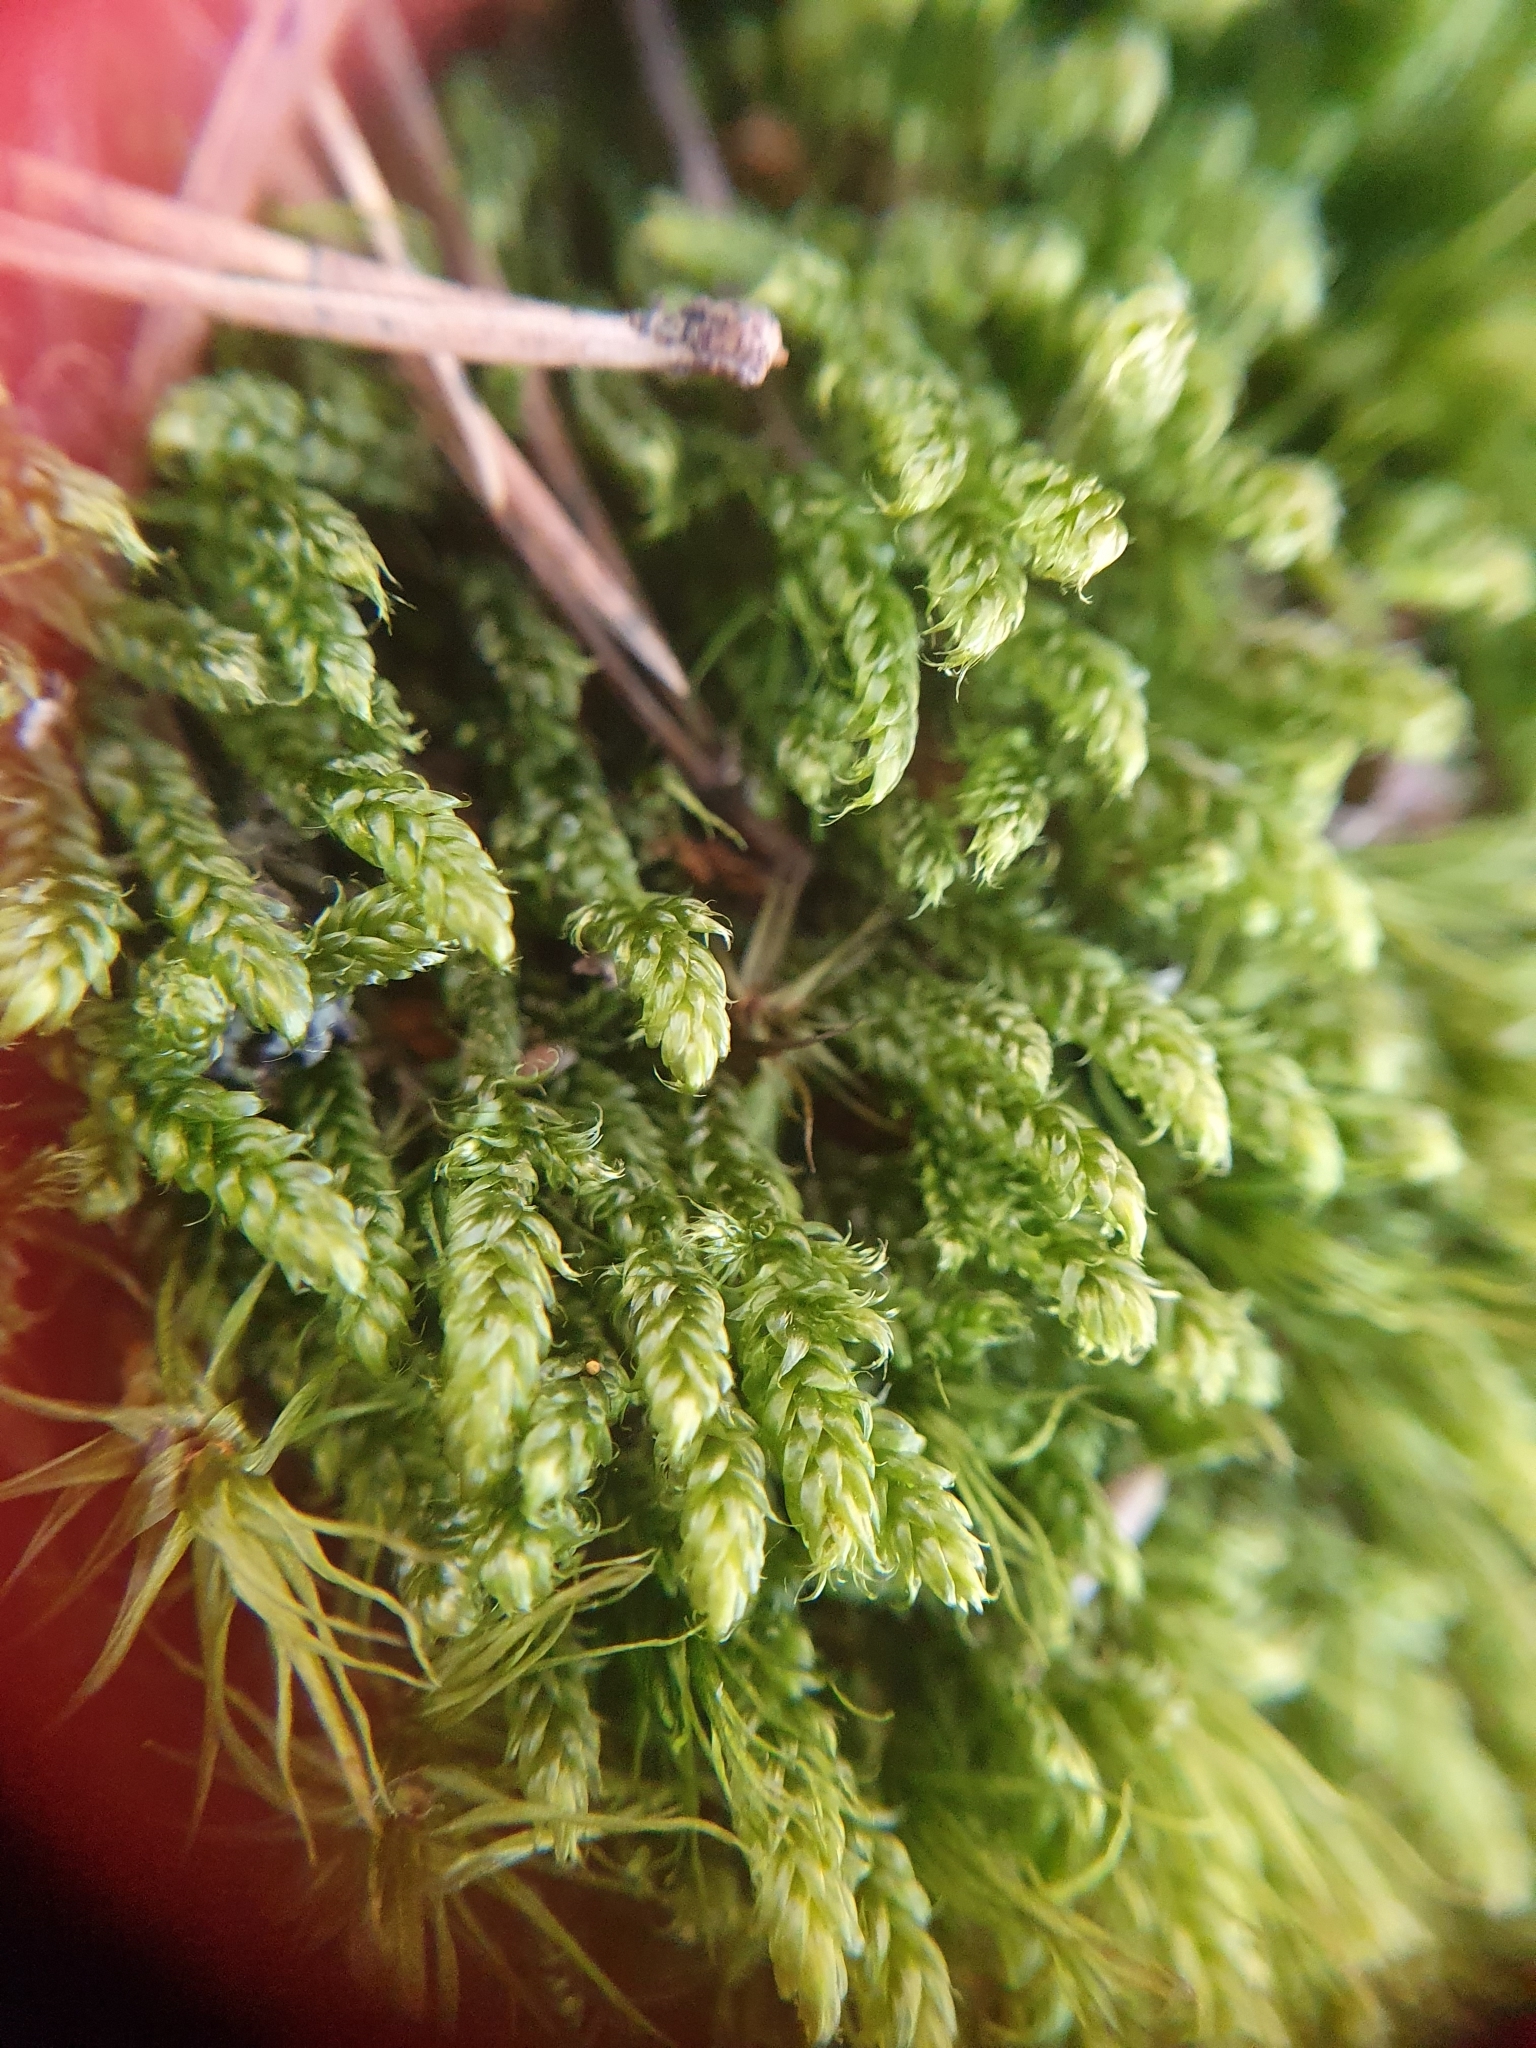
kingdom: Plantae
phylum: Bryophyta
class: Bryopsida
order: Hypnales
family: Hypnaceae
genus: Hypnum
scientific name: Hypnum cupressiforme
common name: Cypress-leaved plait-moss
